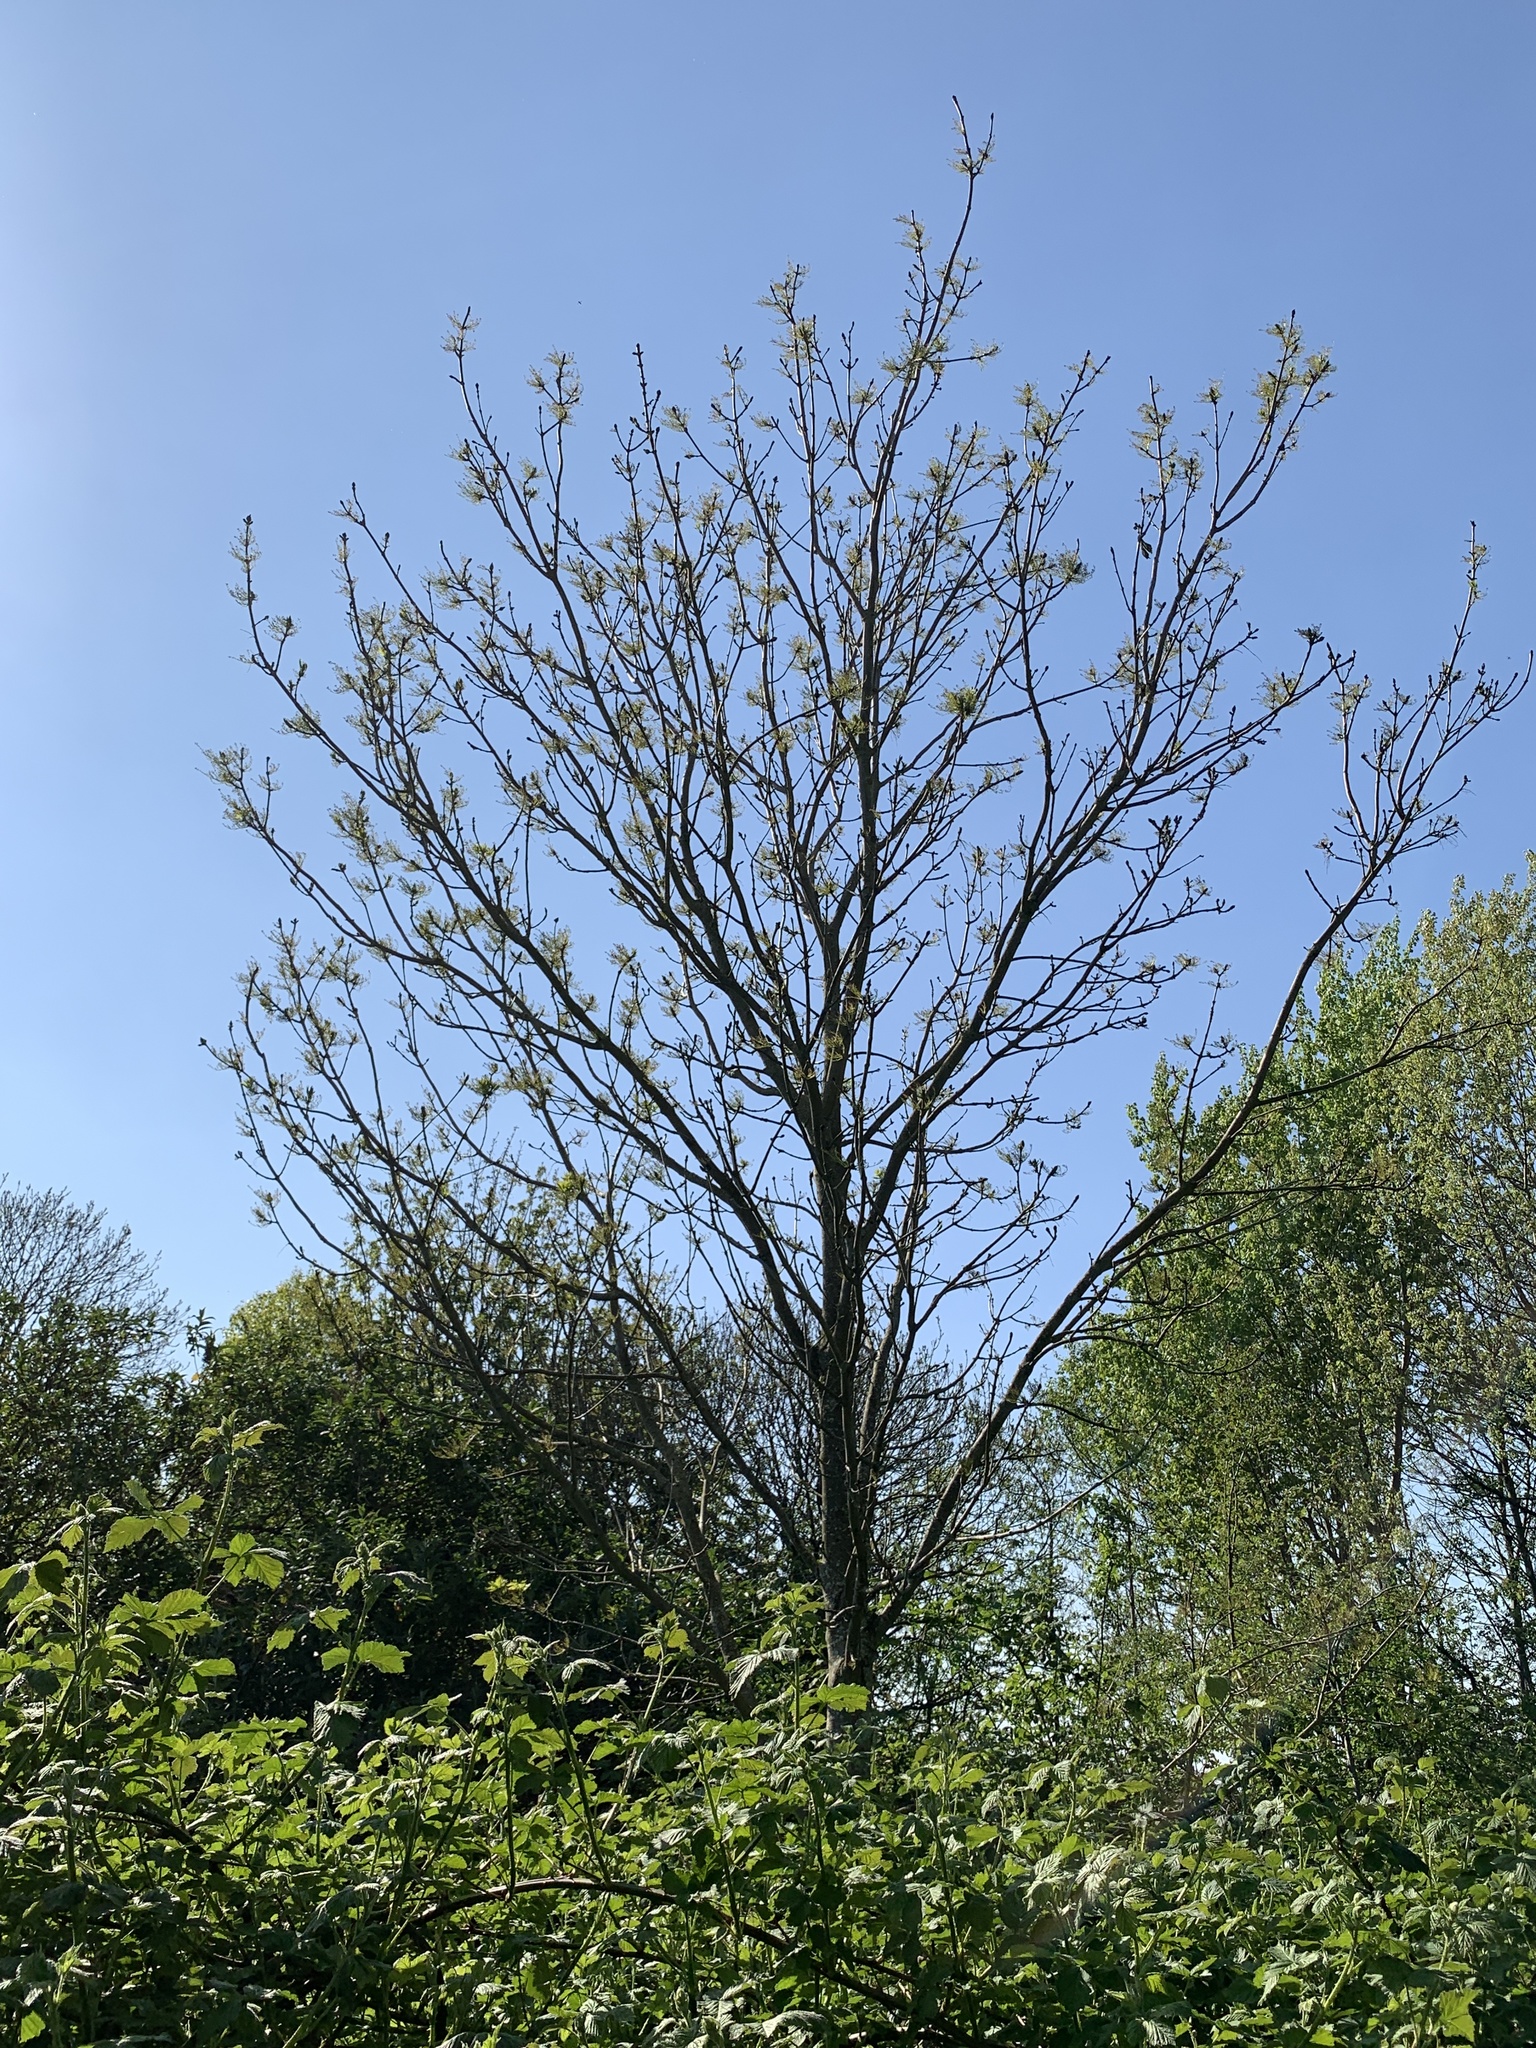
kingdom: Plantae
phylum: Tracheophyta
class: Magnoliopsida
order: Lamiales
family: Oleaceae
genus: Fraxinus
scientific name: Fraxinus excelsior
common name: European ash
